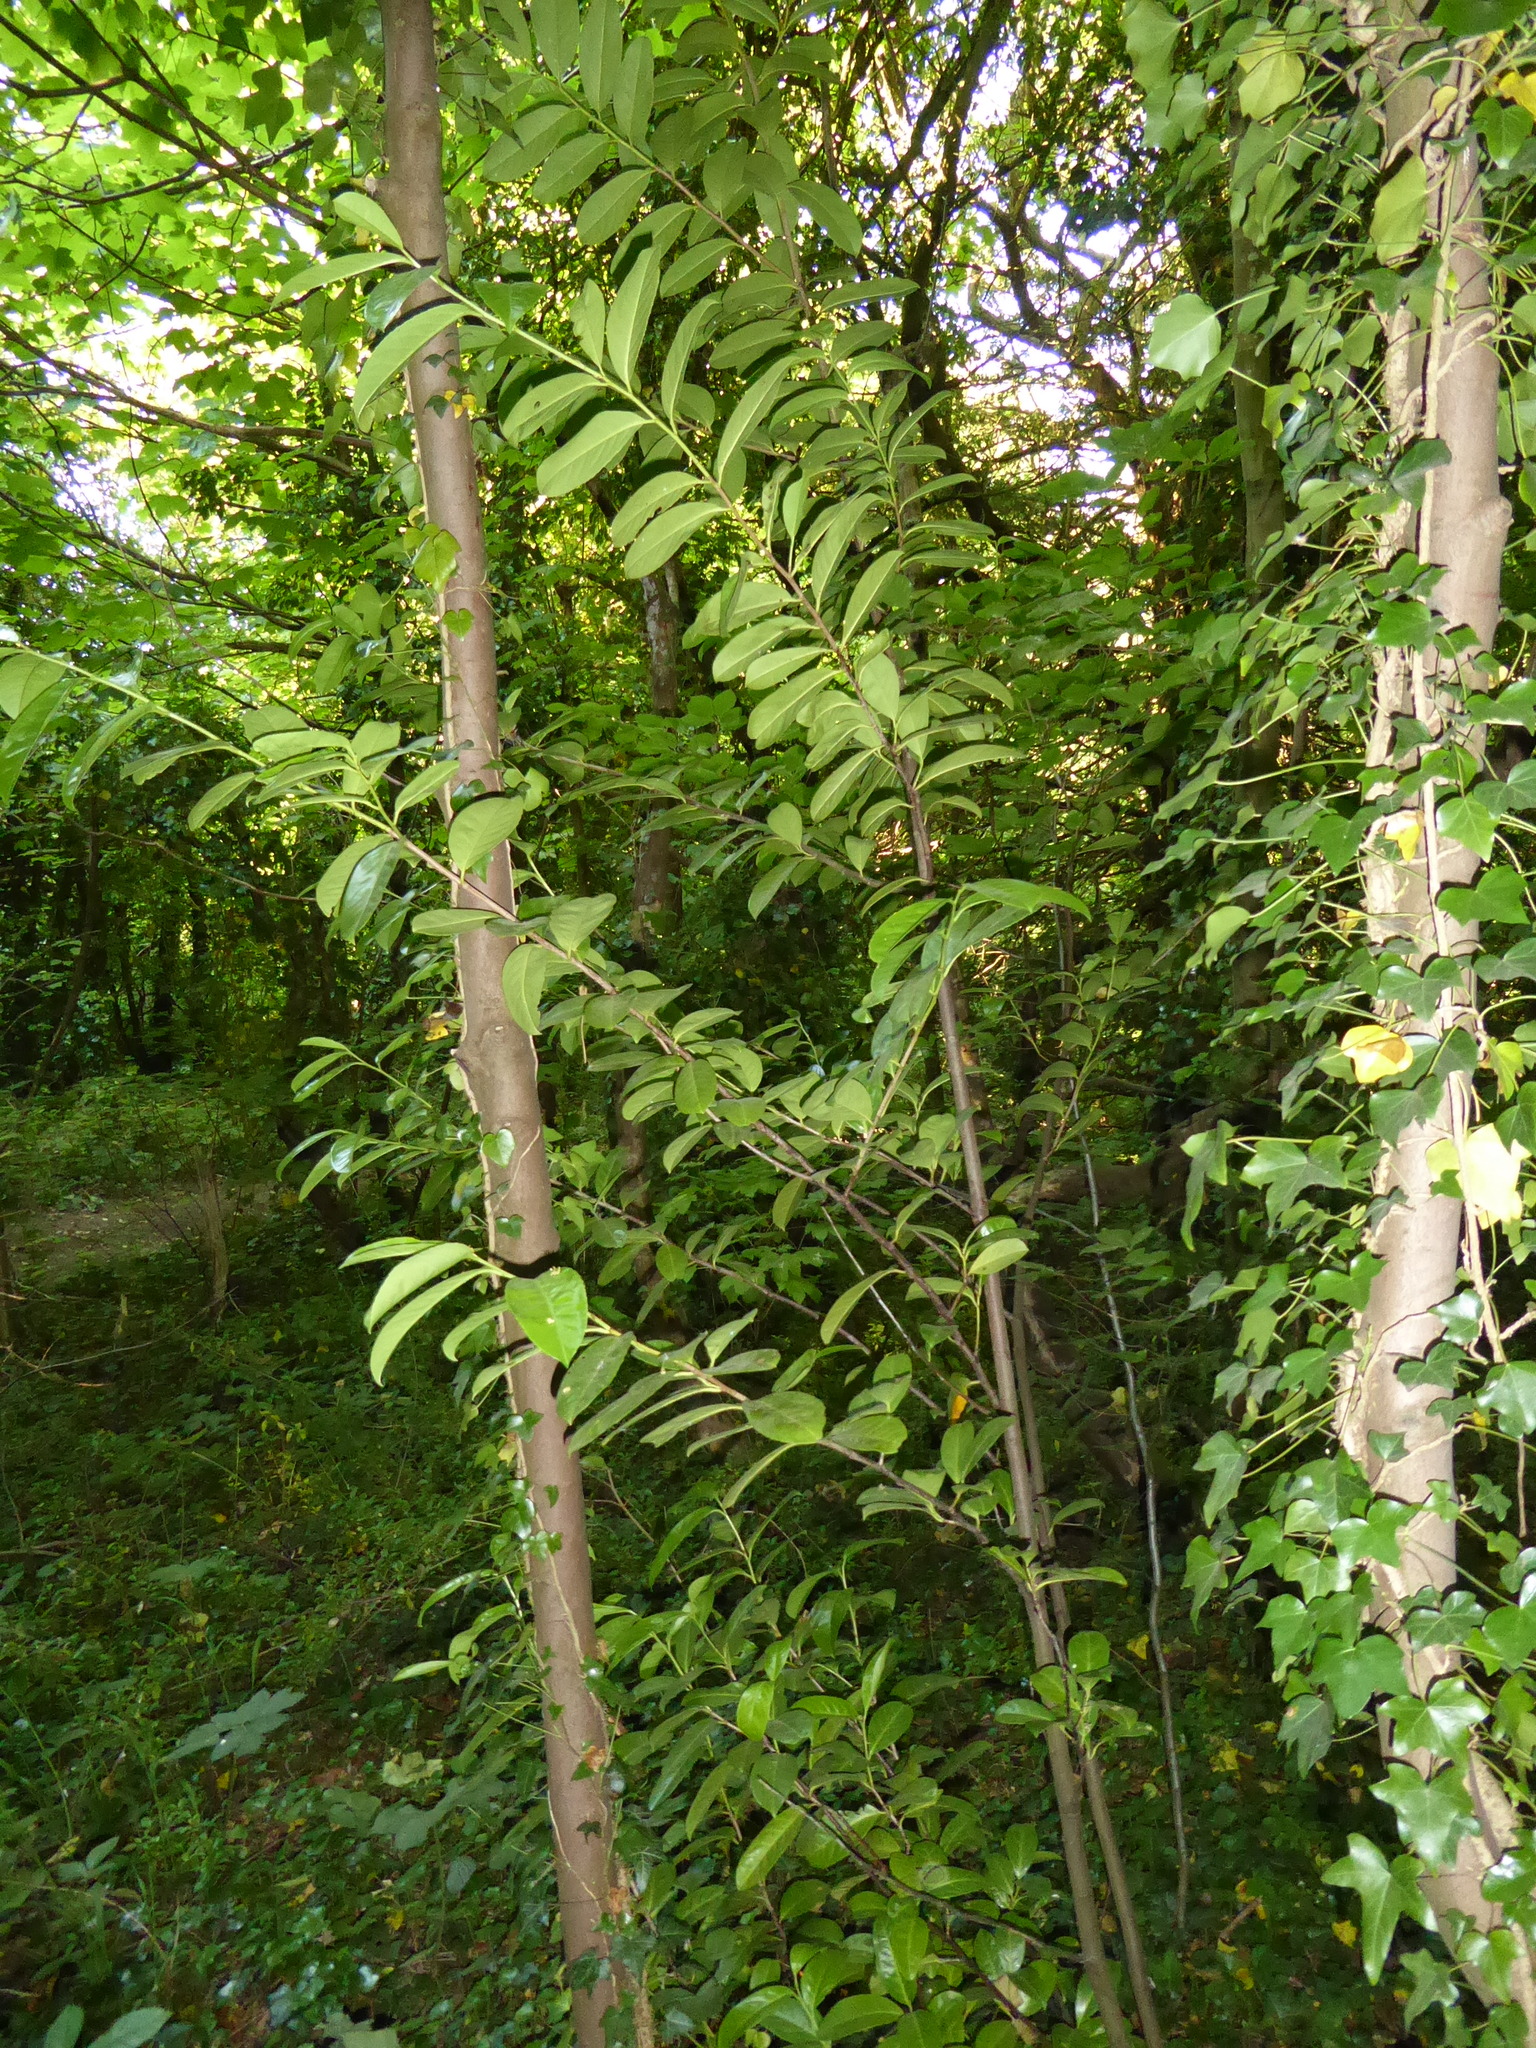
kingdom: Plantae
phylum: Tracheophyta
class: Magnoliopsida
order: Rosales
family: Rosaceae
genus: Prunus
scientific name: Prunus laurocerasus
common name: Cherry laurel
